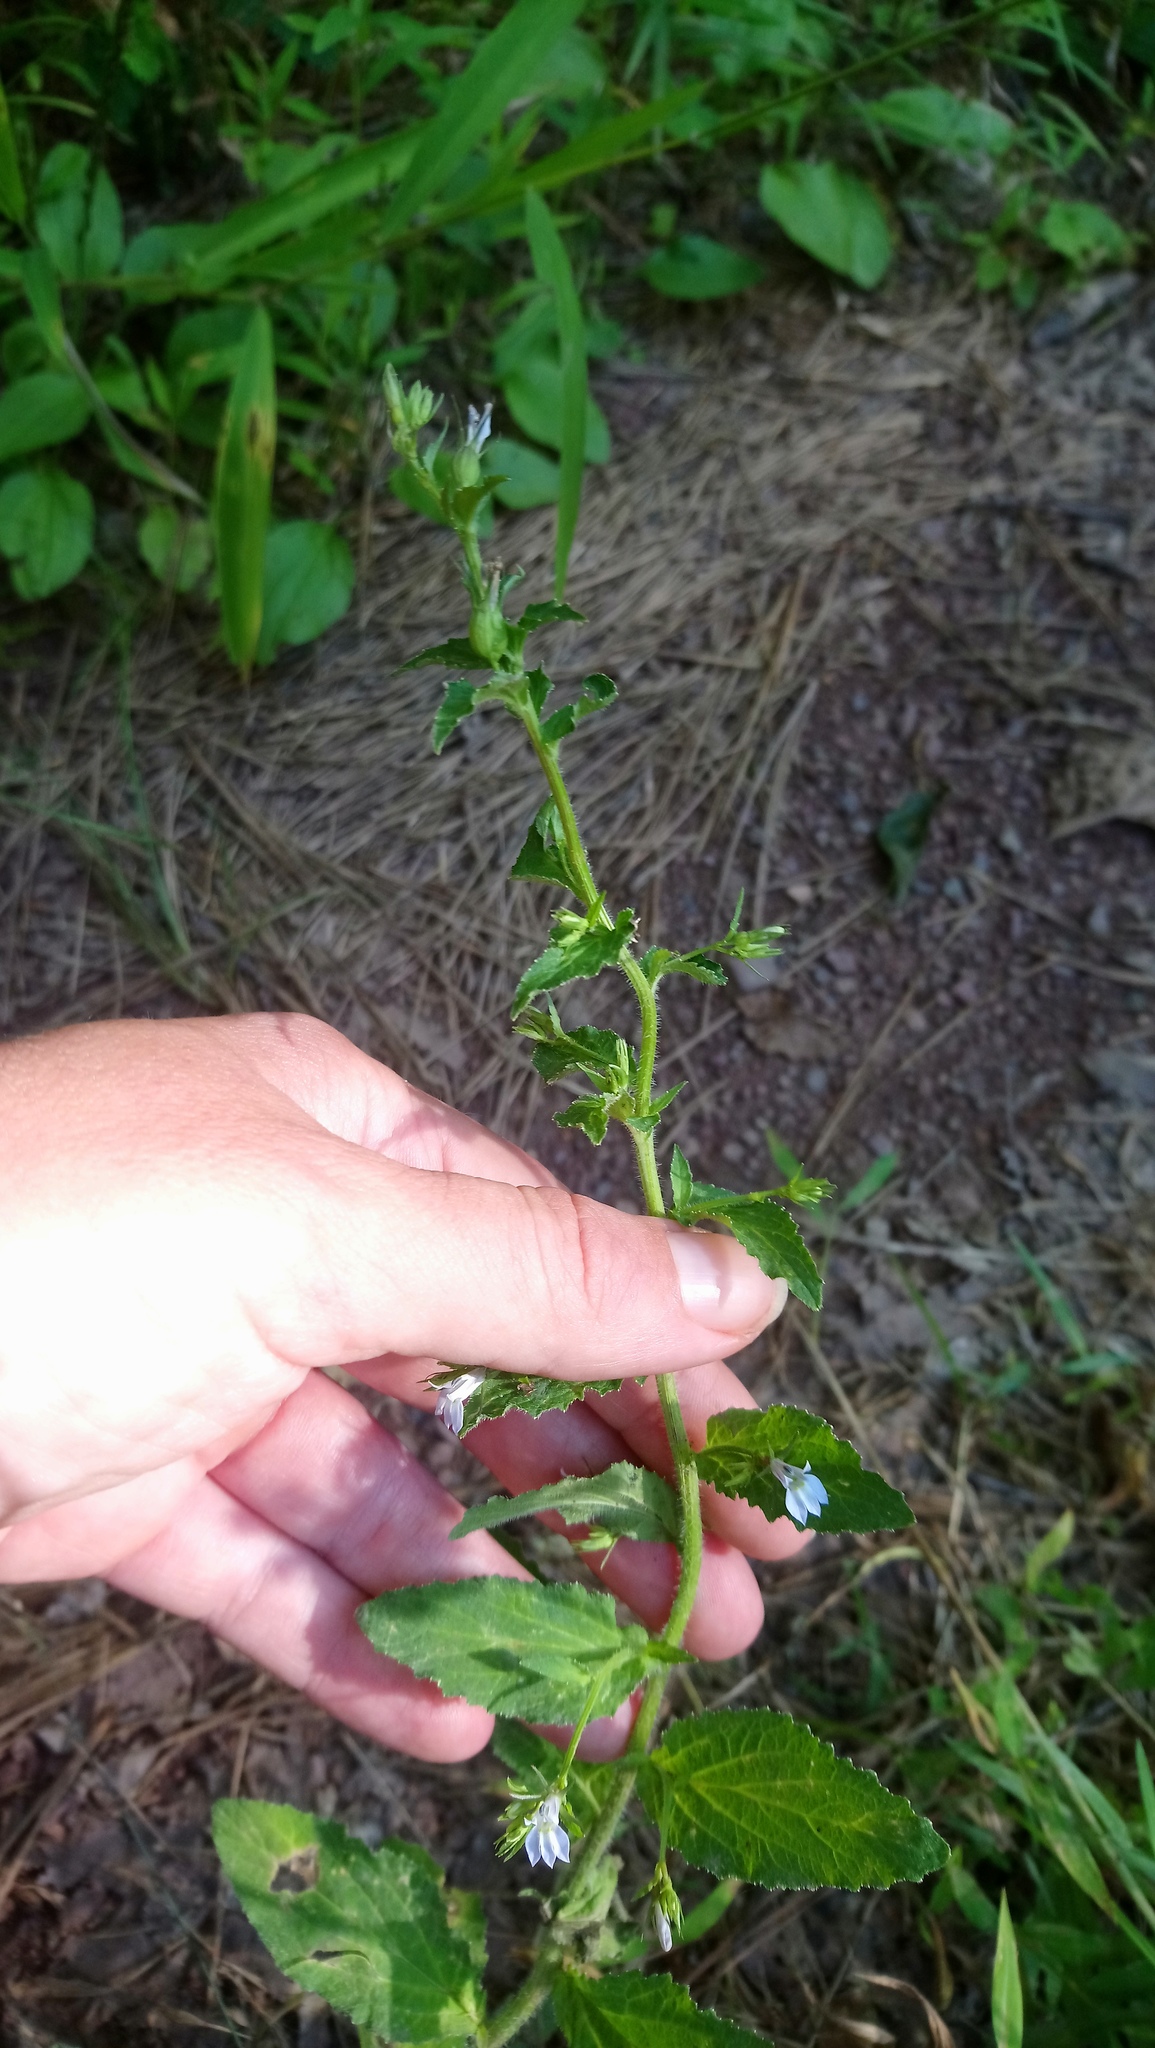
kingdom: Plantae
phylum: Tracheophyta
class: Magnoliopsida
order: Asterales
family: Campanulaceae
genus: Lobelia
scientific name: Lobelia inflata
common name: Indian tobacco
